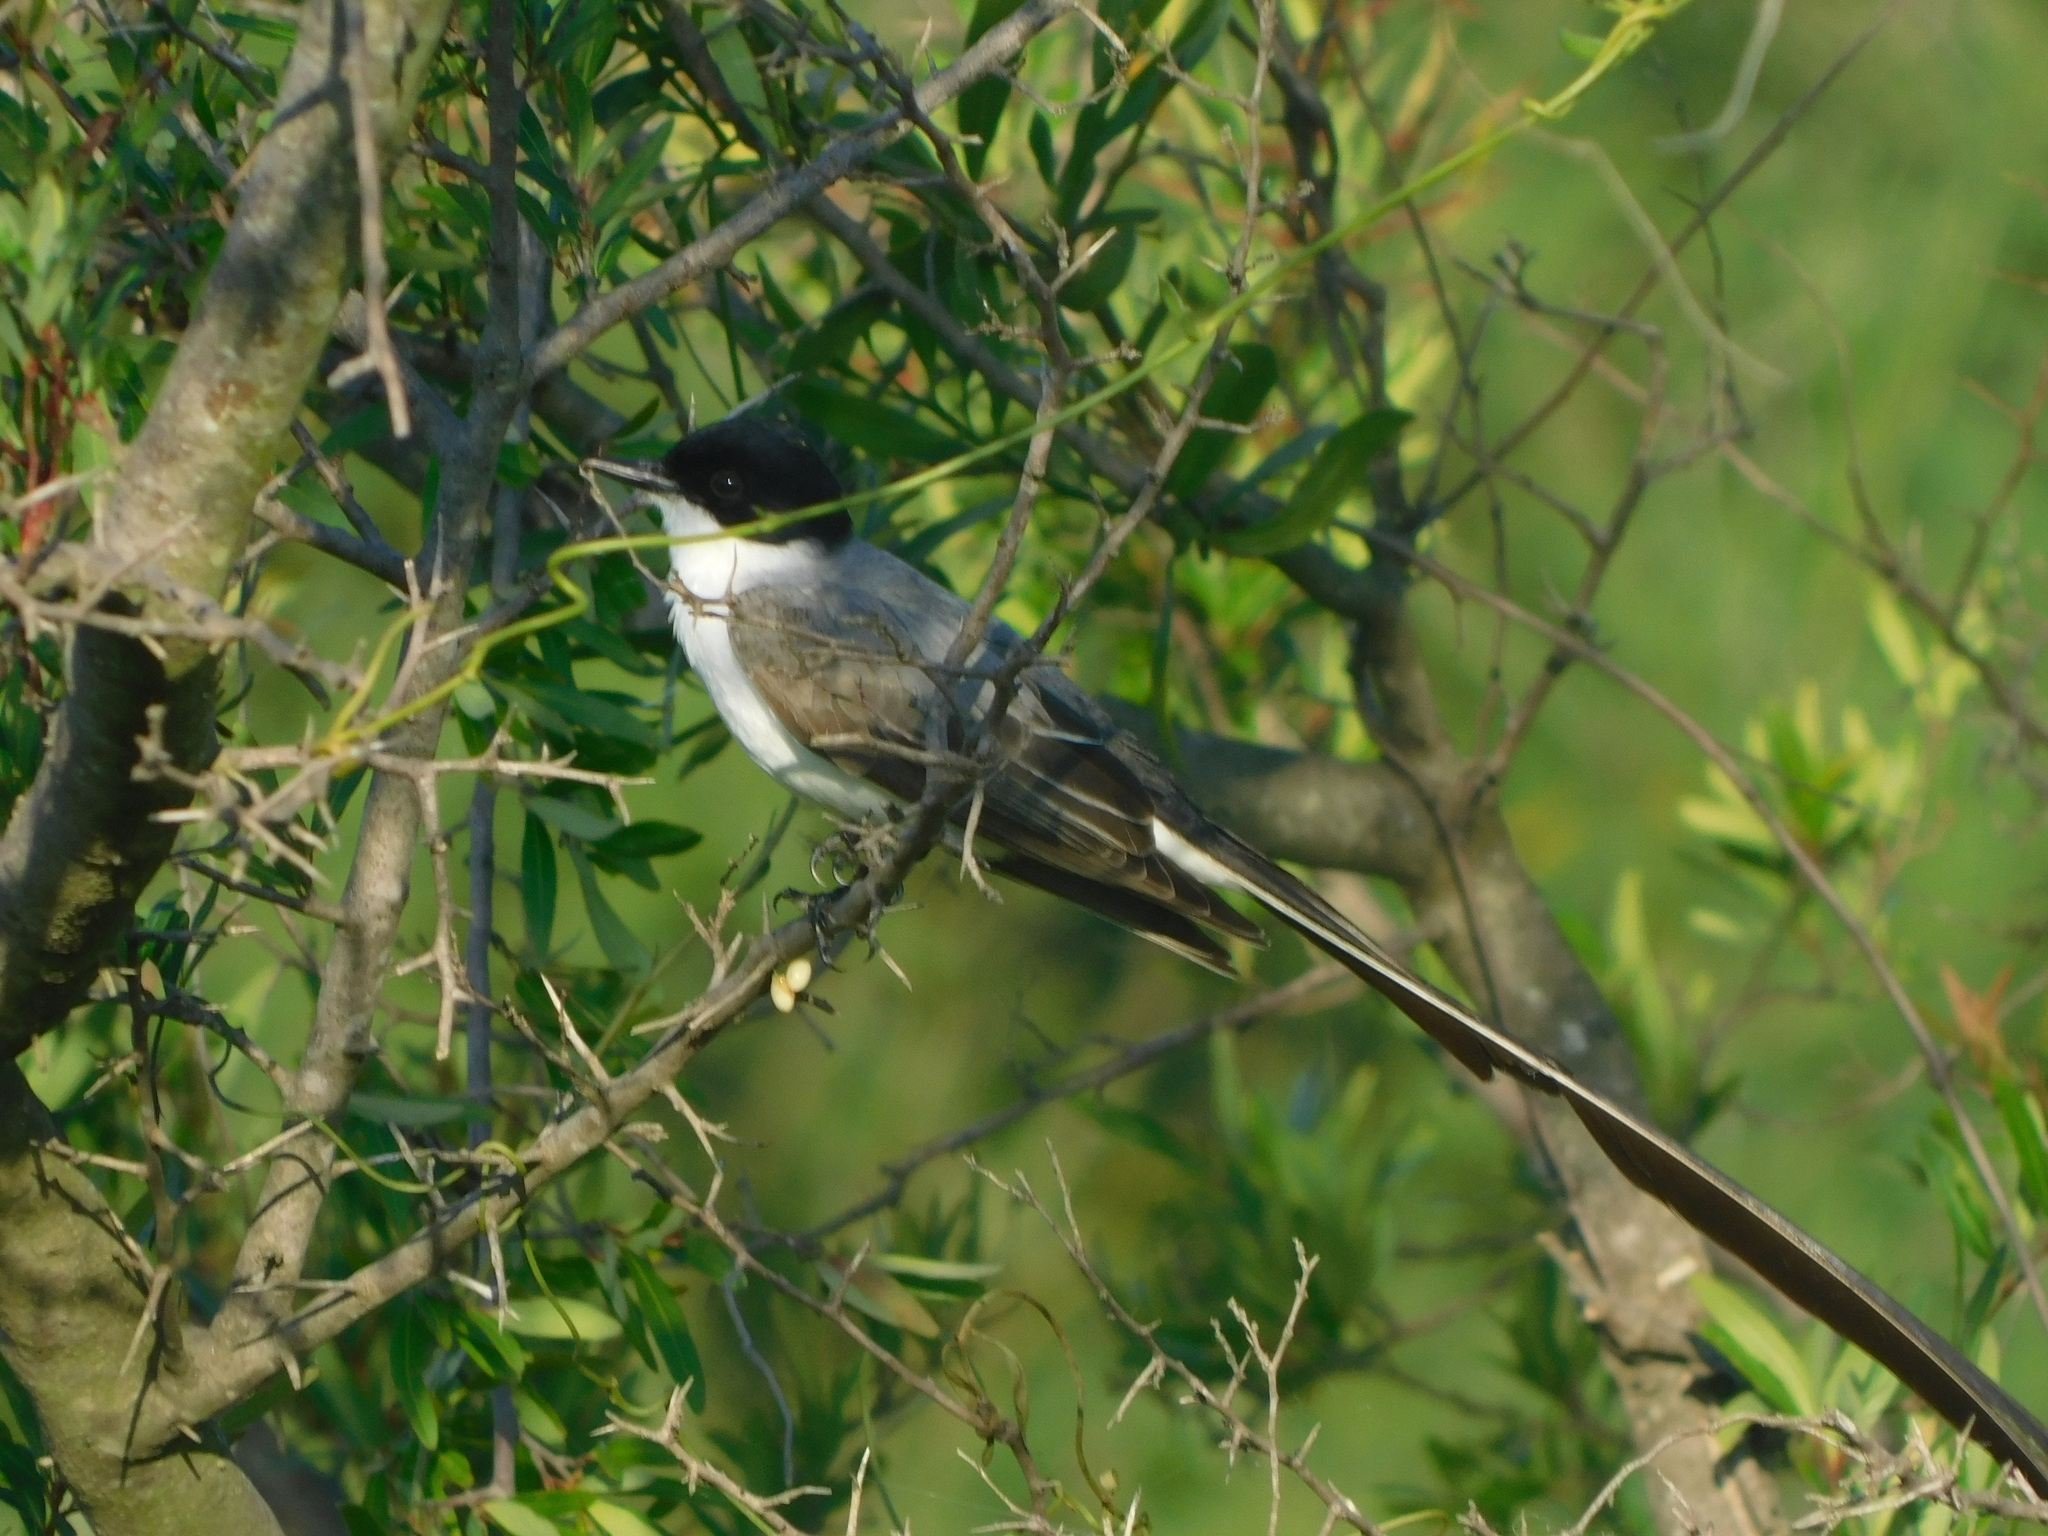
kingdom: Animalia
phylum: Chordata
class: Aves
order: Passeriformes
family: Tyrannidae
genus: Tyrannus
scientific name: Tyrannus savana
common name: Fork-tailed flycatcher
